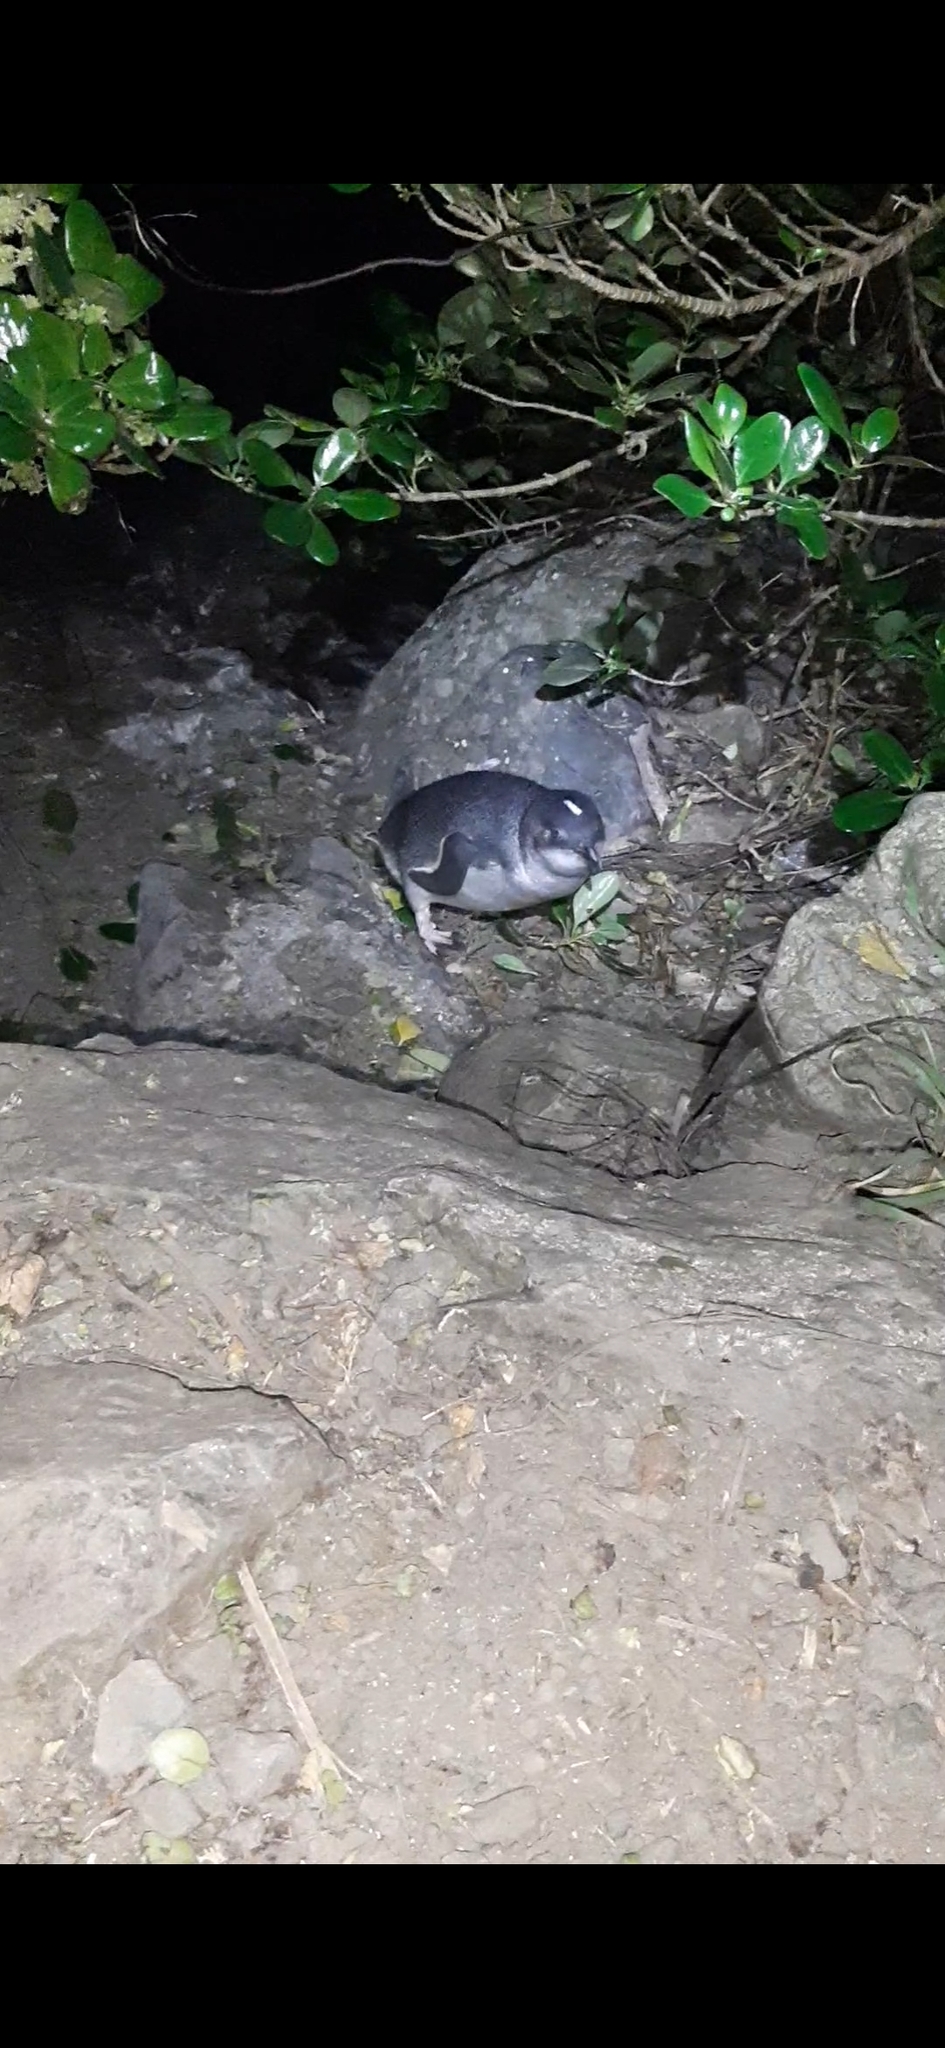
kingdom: Animalia
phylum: Chordata
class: Aves
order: Sphenisciformes
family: Spheniscidae
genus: Eudyptula
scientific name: Eudyptula minor
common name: Little penguin
